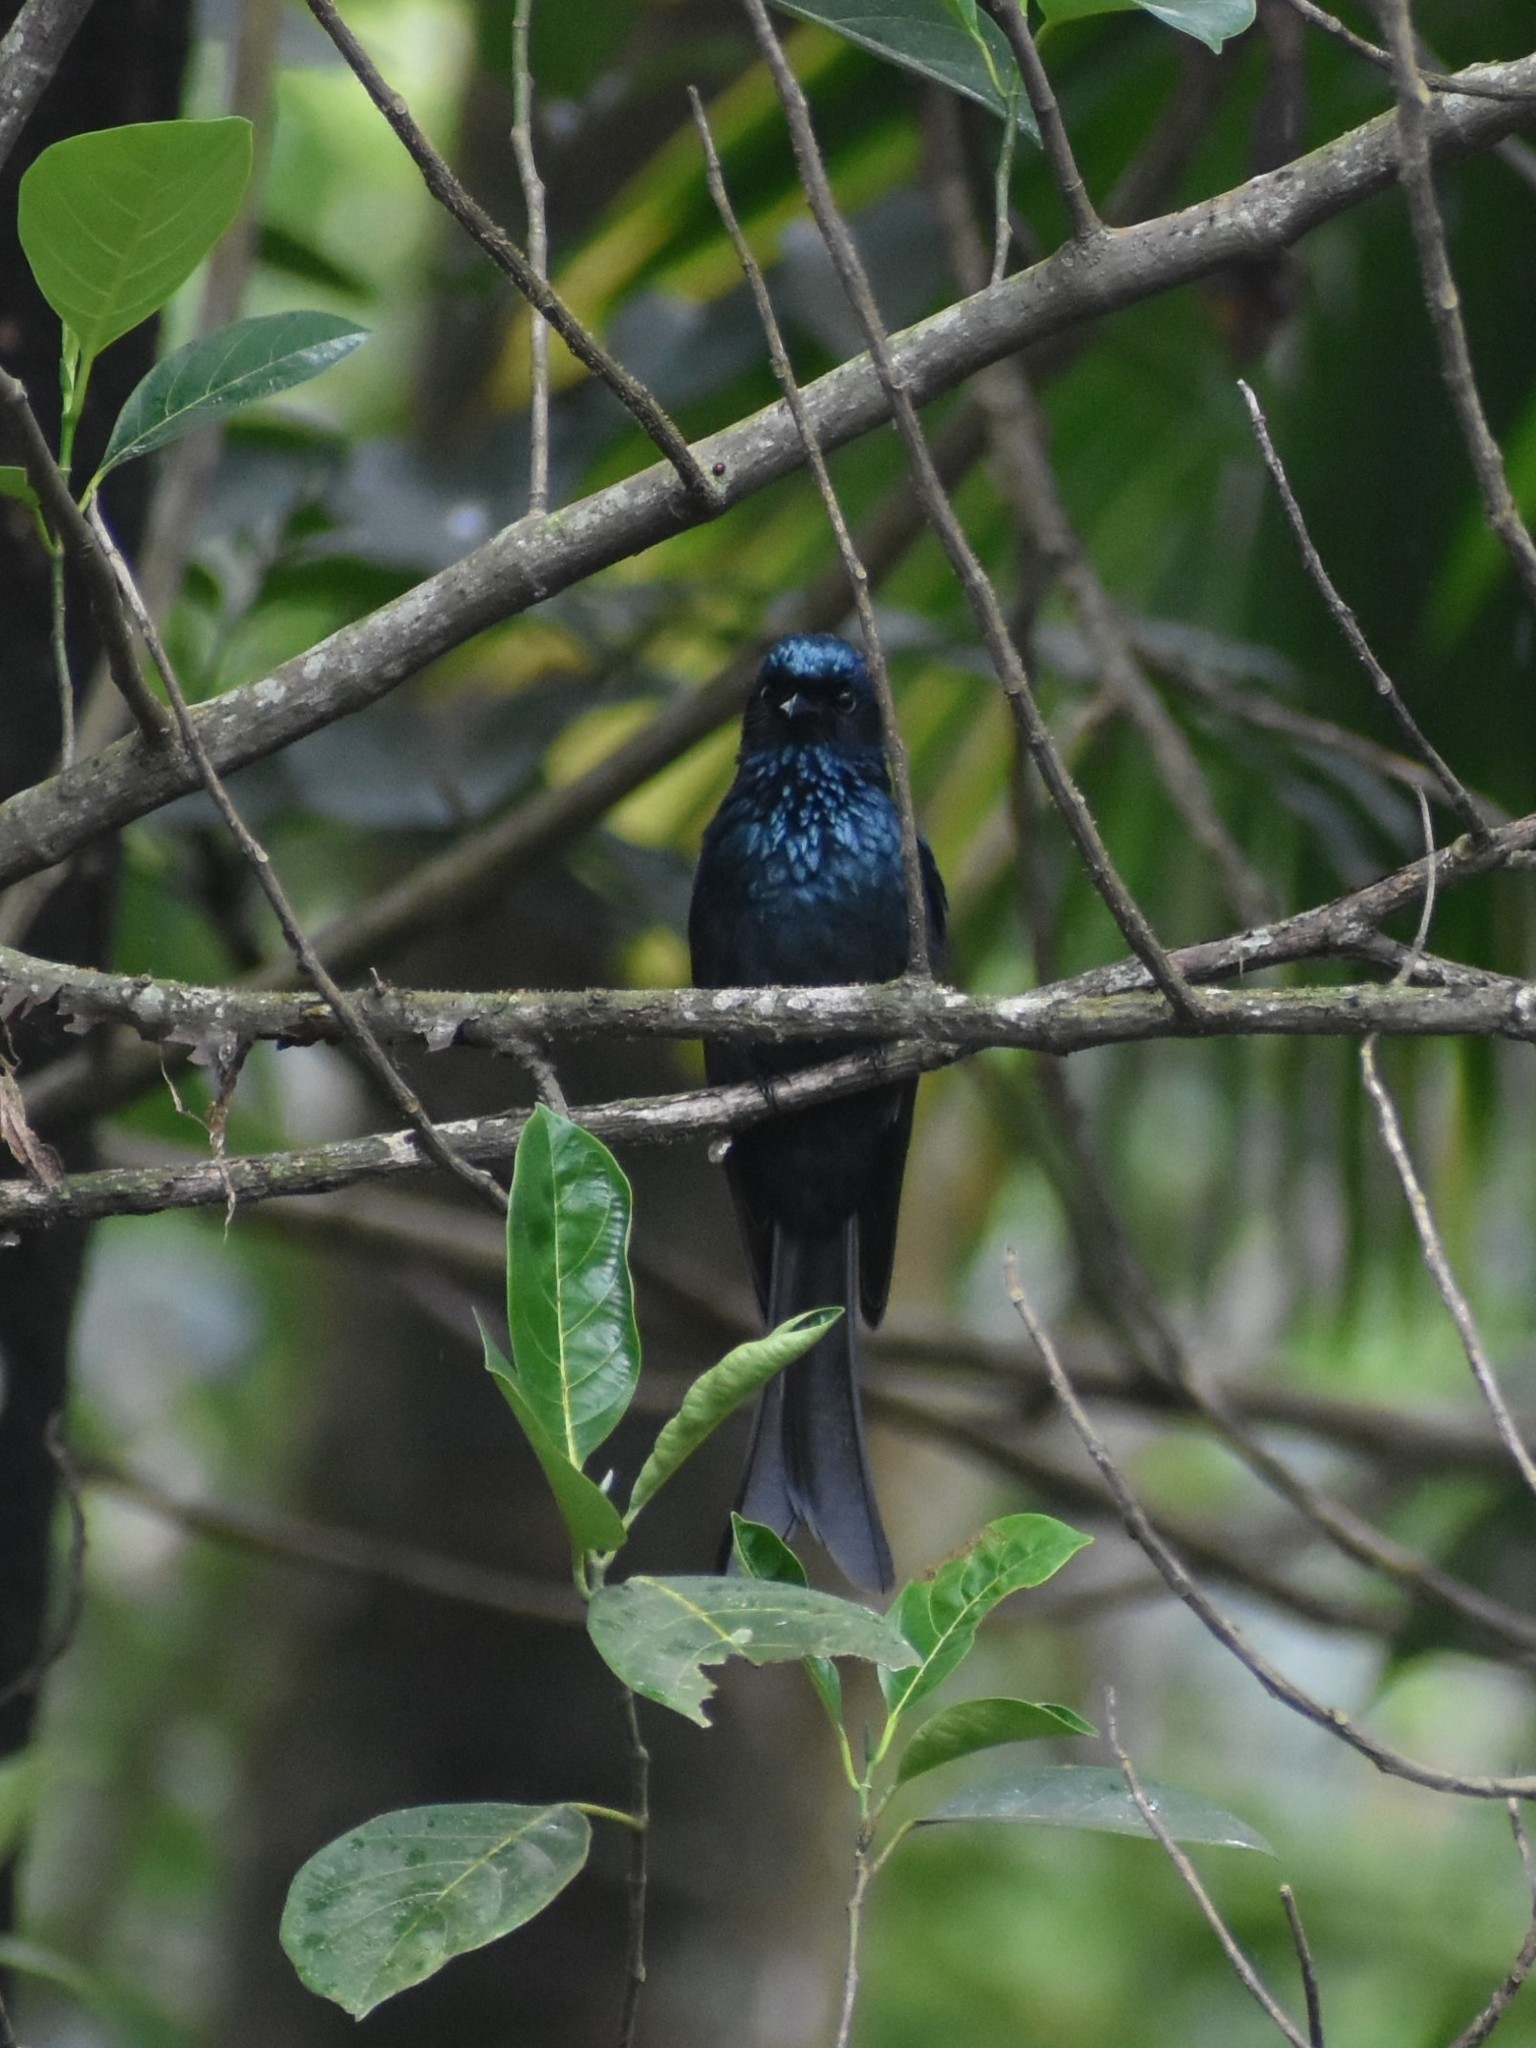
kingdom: Animalia
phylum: Chordata
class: Aves
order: Passeriformes
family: Dicruridae
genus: Dicrurus
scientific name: Dicrurus aeneus
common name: Bronzed drongo
